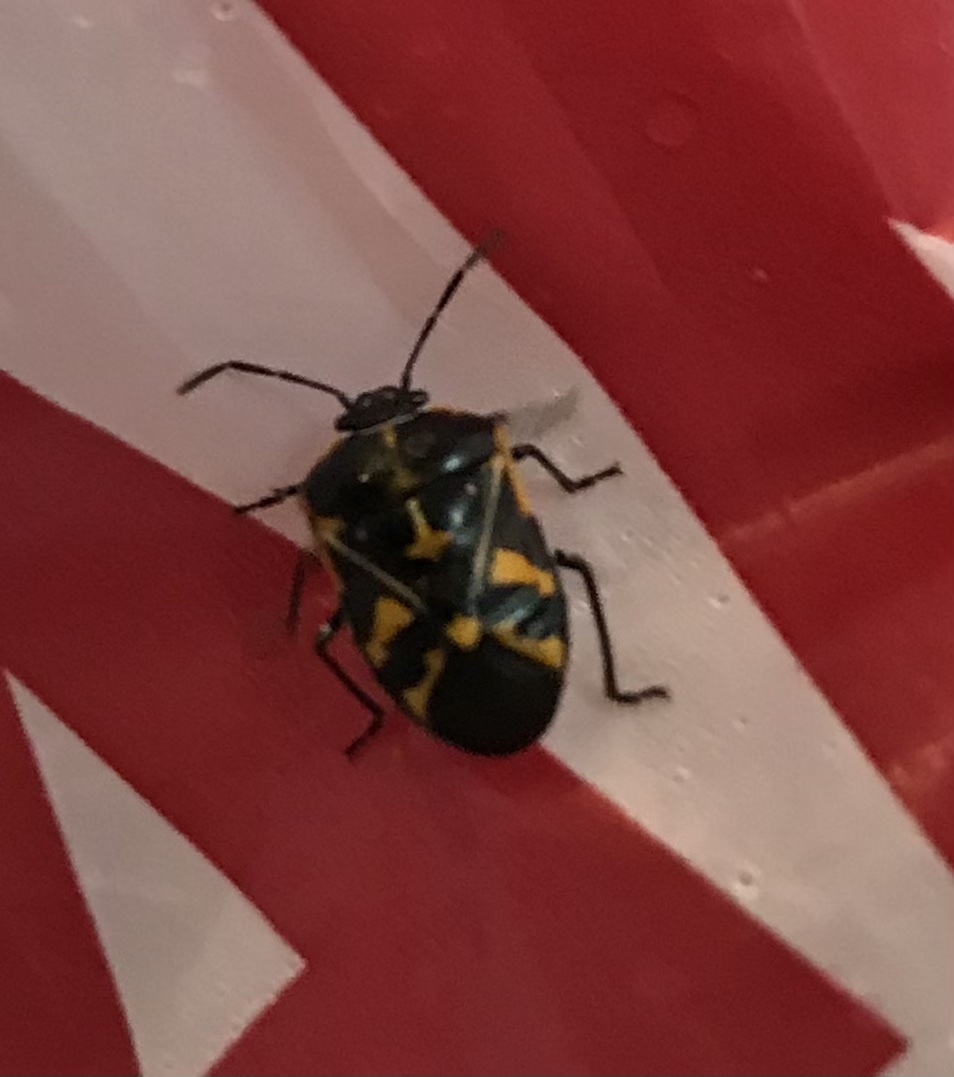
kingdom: Animalia
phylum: Arthropoda
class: Insecta
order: Hemiptera
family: Pentatomidae
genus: Murgantia
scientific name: Murgantia histrionica
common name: Harlequin bug
